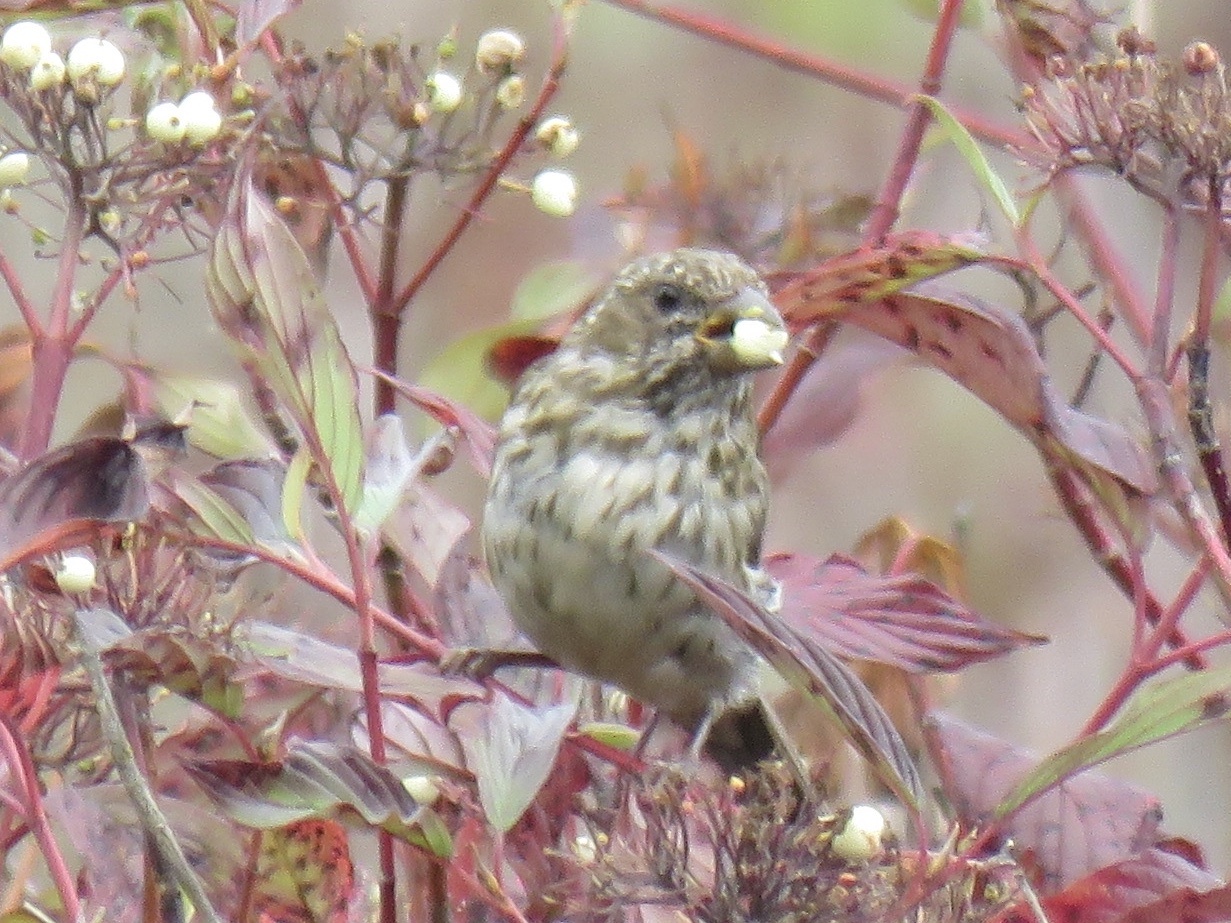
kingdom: Animalia
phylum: Chordata
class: Aves
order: Passeriformes
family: Fringillidae
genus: Haemorhous
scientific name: Haemorhous purpureus
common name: Purple finch
